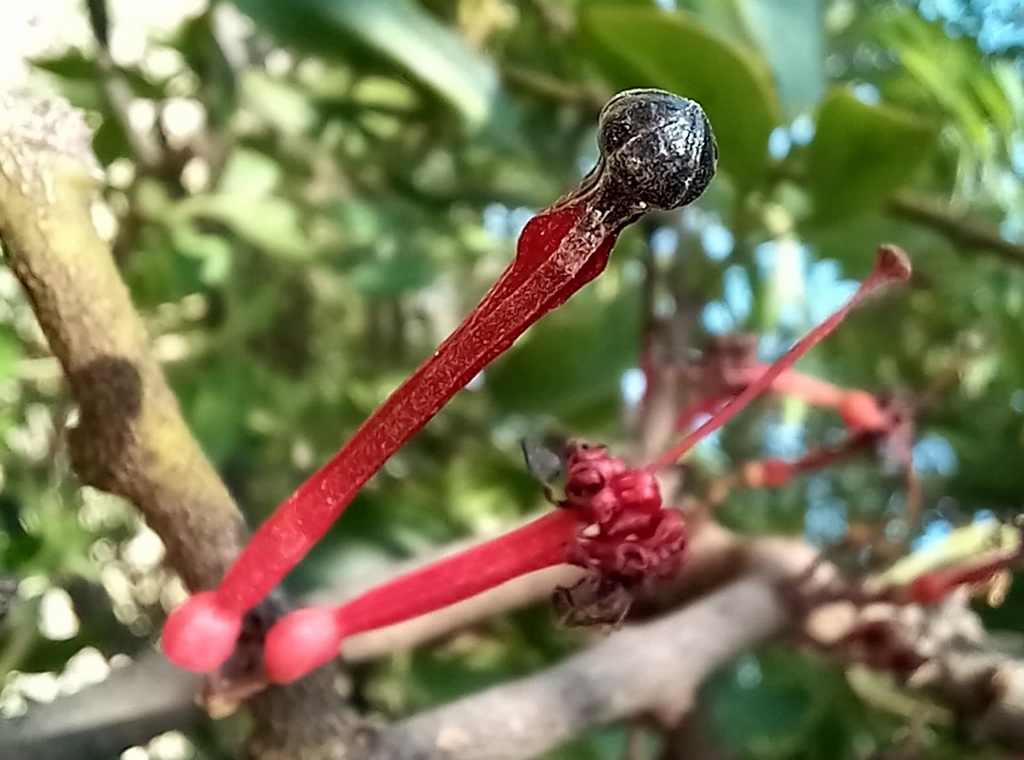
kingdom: Plantae
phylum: Tracheophyta
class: Magnoliopsida
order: Santalales
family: Loranthaceae
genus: Globimetula
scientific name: Globimetula mweroensis
